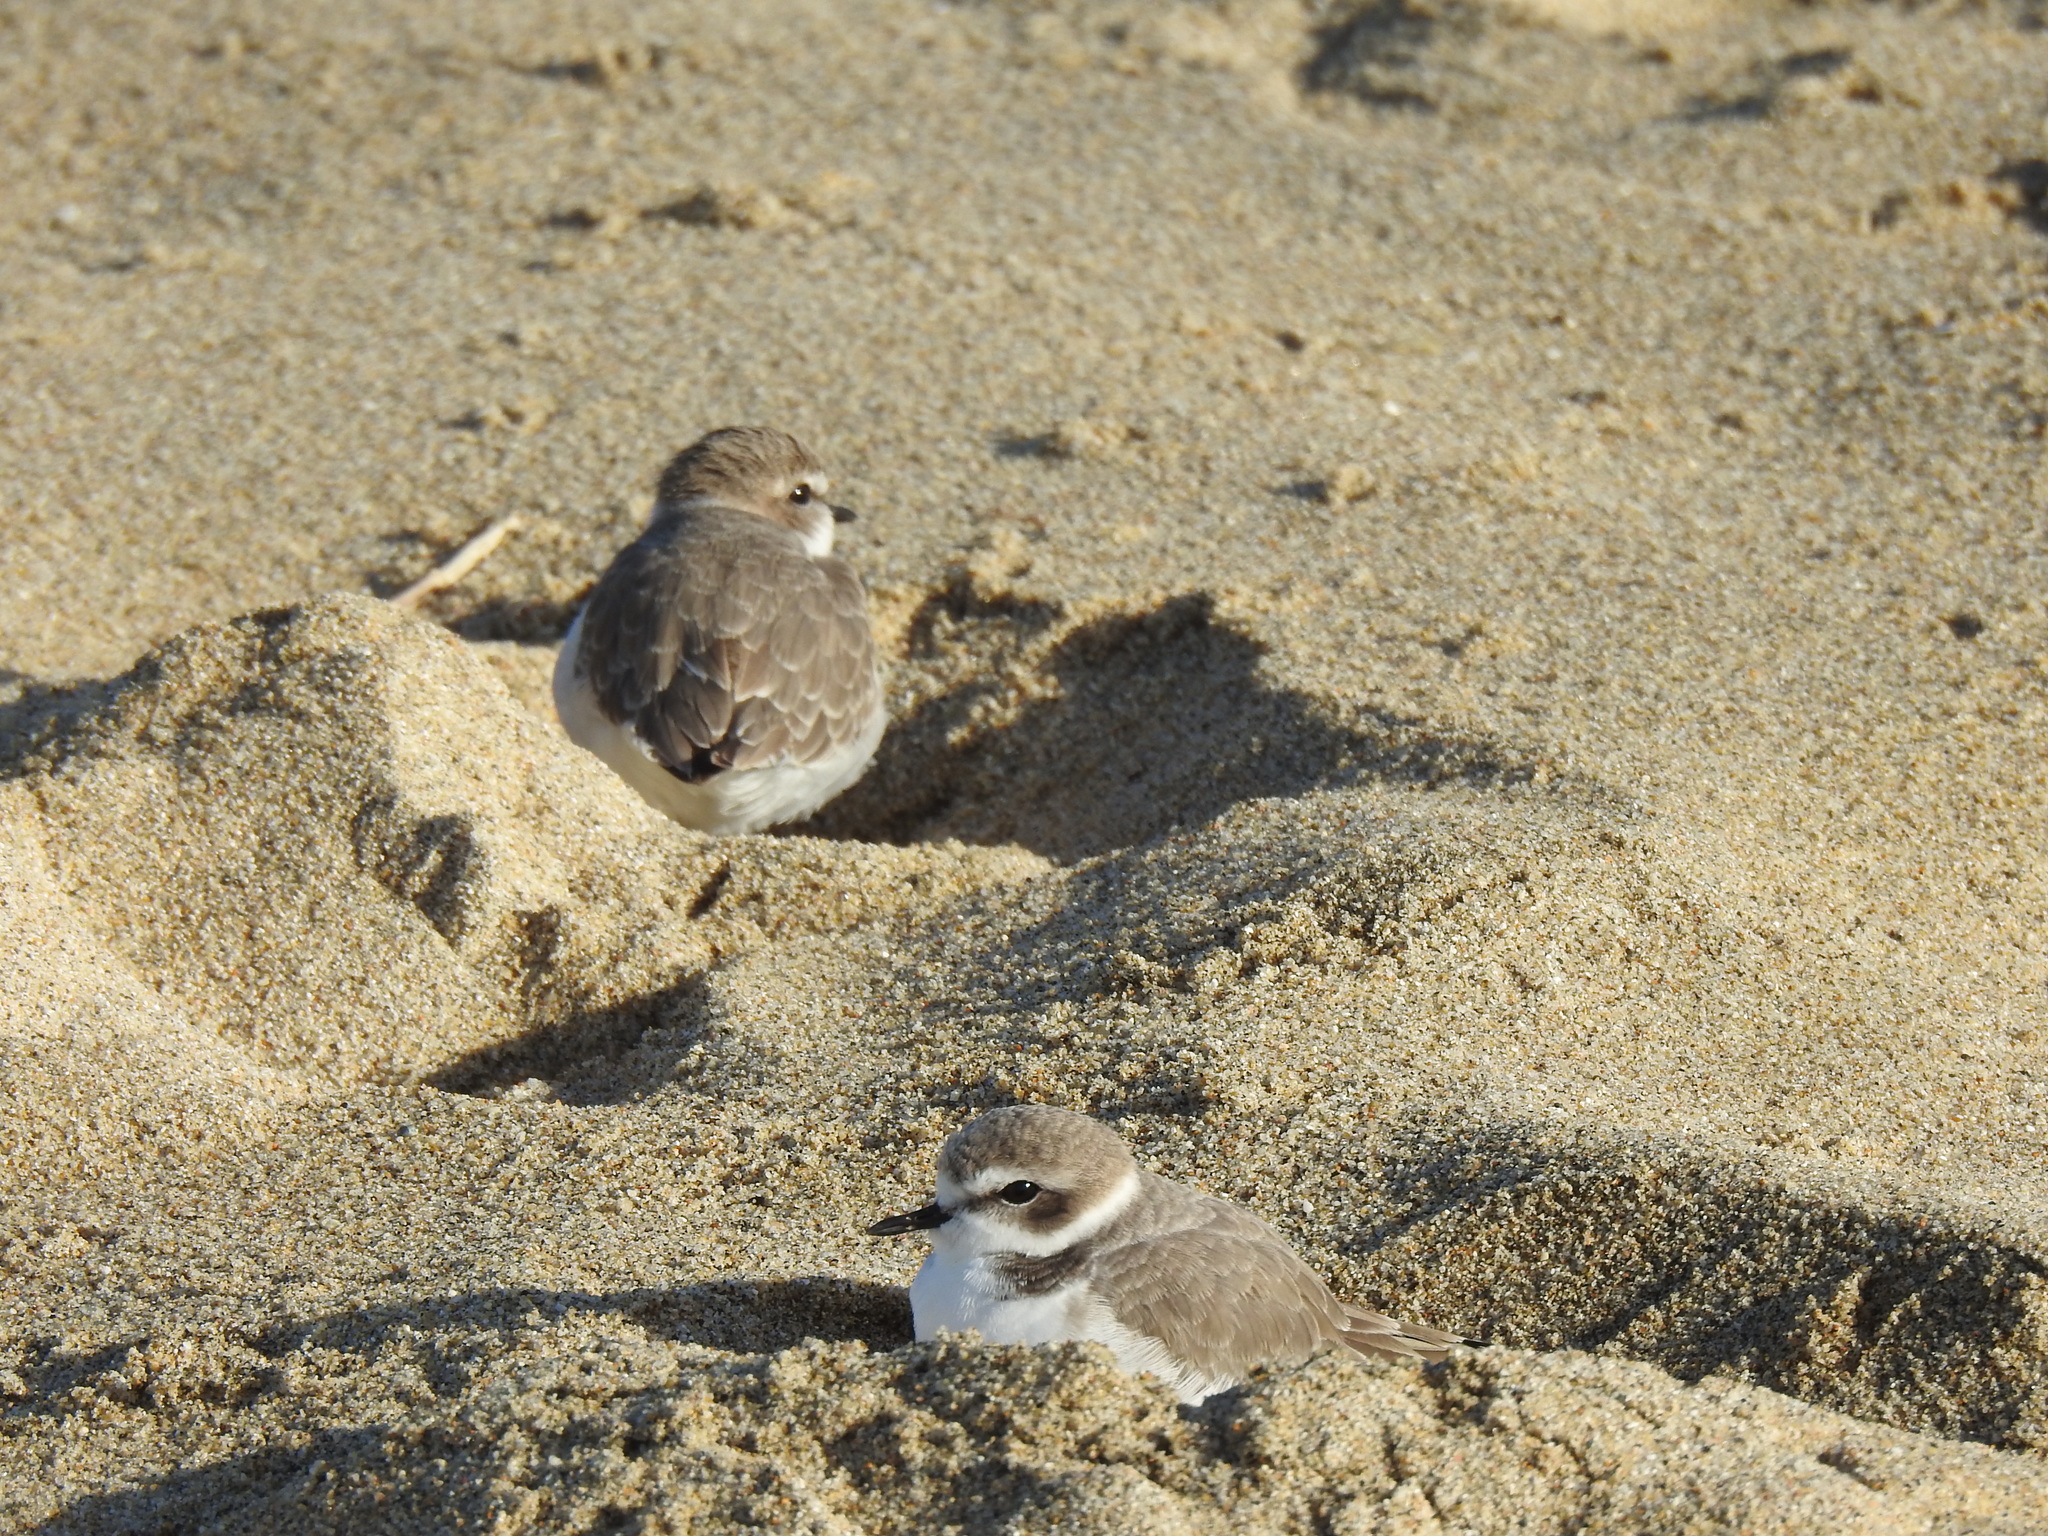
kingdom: Animalia
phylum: Chordata
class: Aves
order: Charadriiformes
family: Charadriidae
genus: Anarhynchus
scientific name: Anarhynchus
